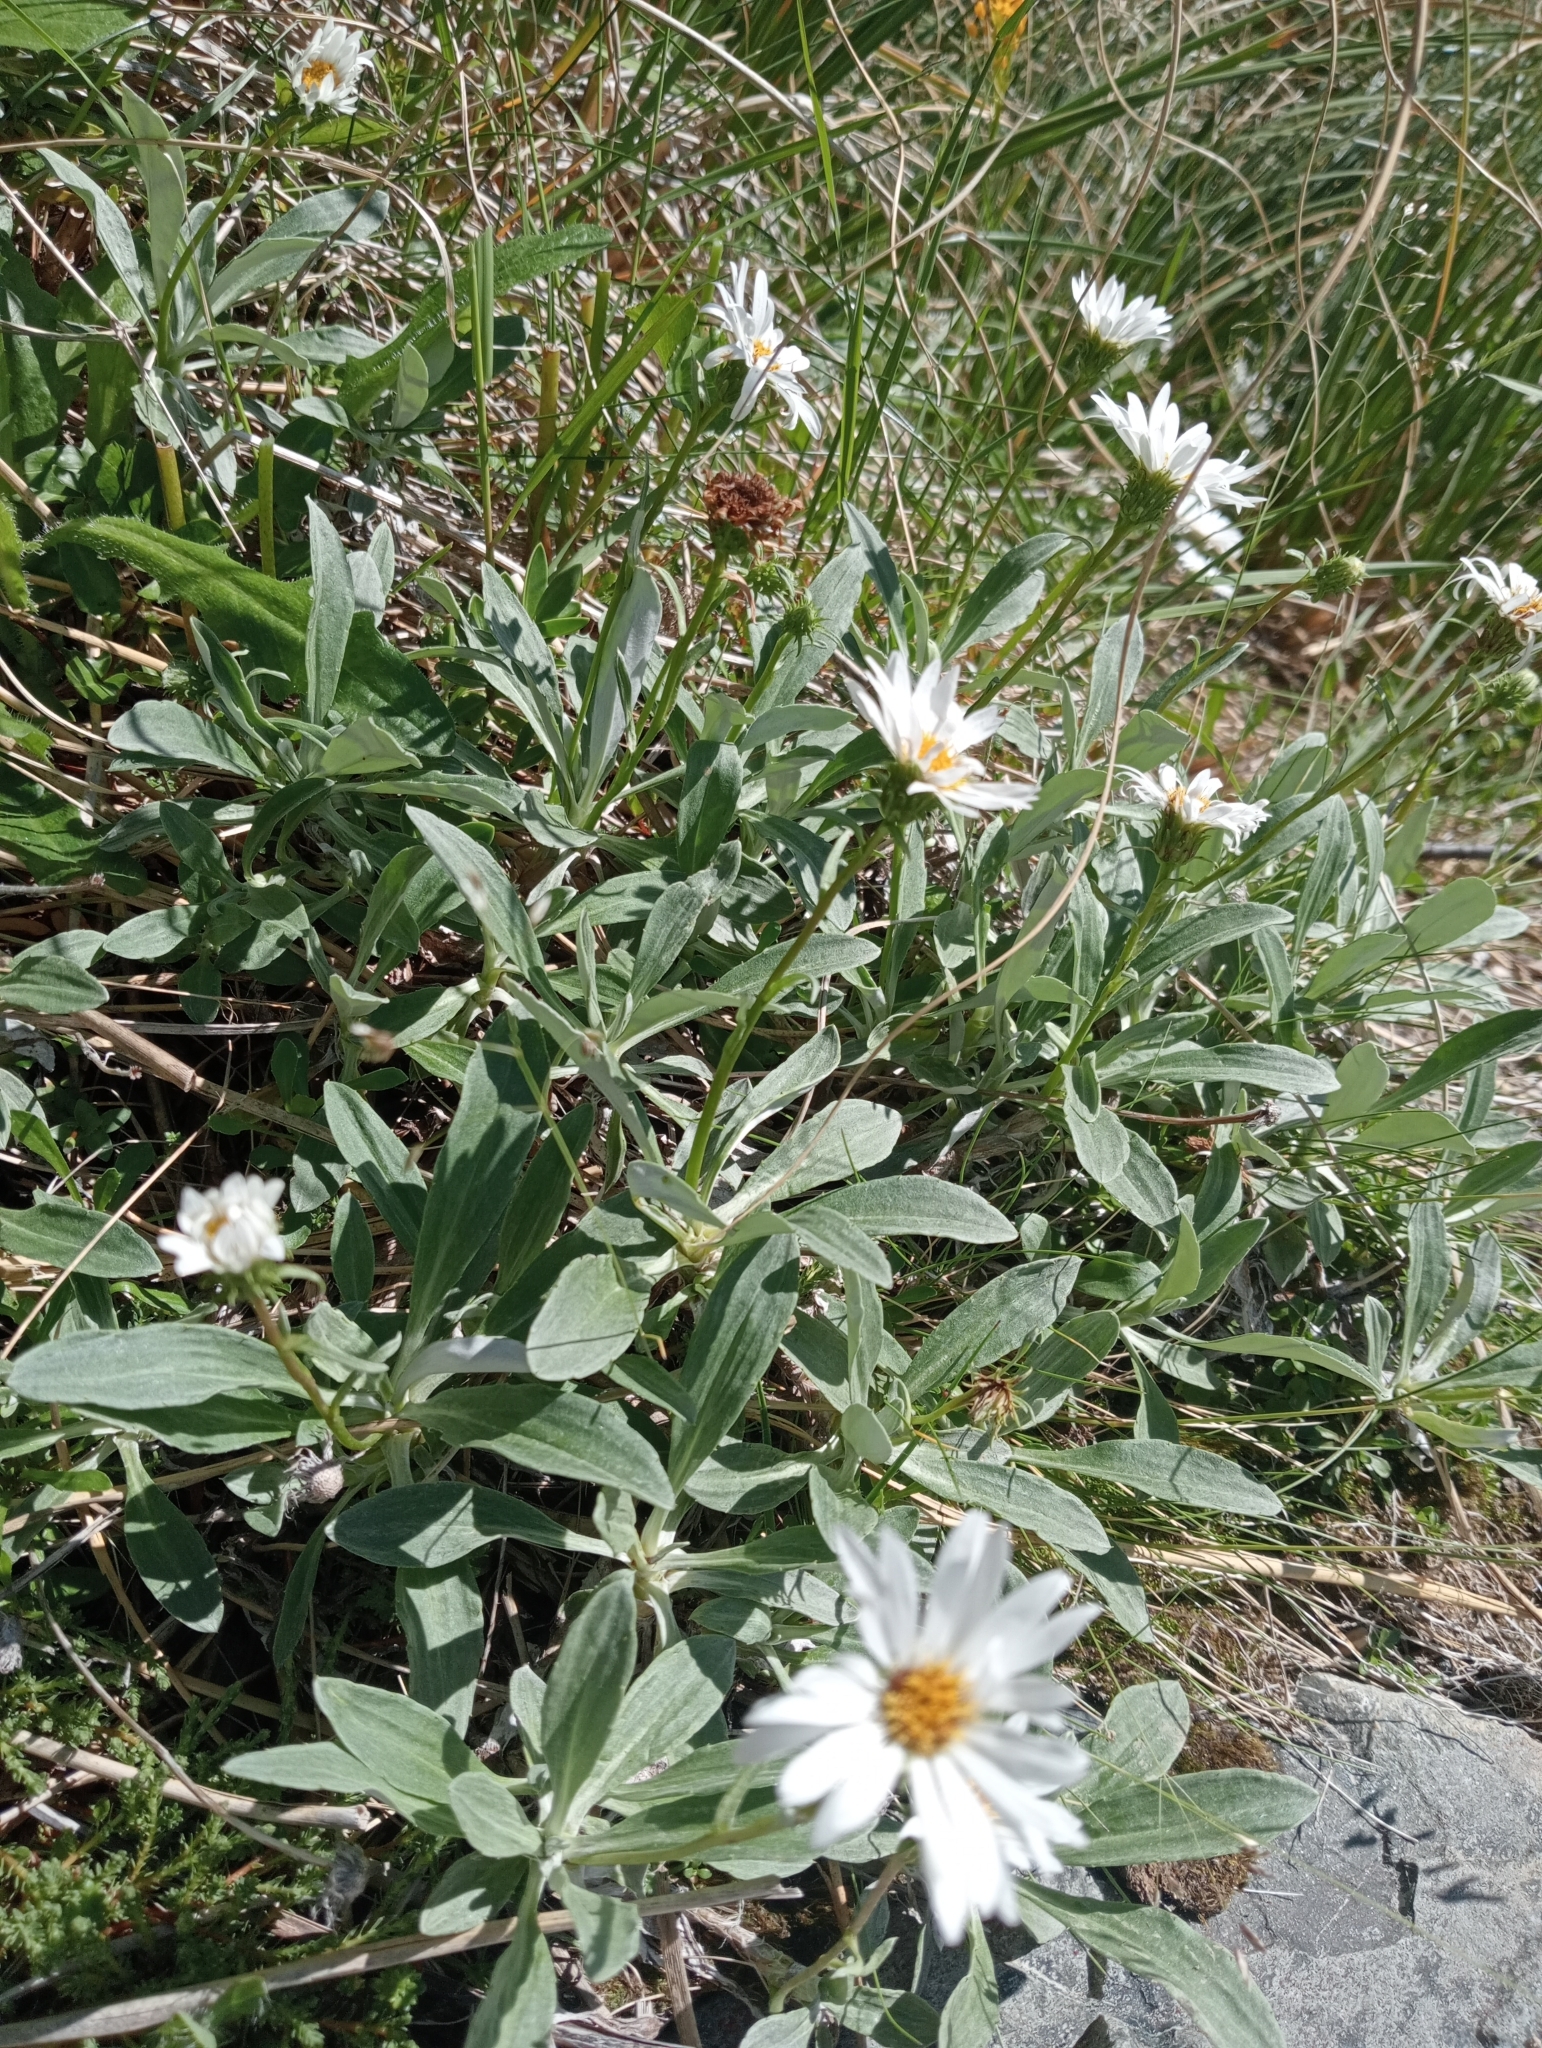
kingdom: Plantae
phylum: Tracheophyta
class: Magnoliopsida
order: Asterales
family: Asteraceae
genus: Celmisia
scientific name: Celmisia durietzii
